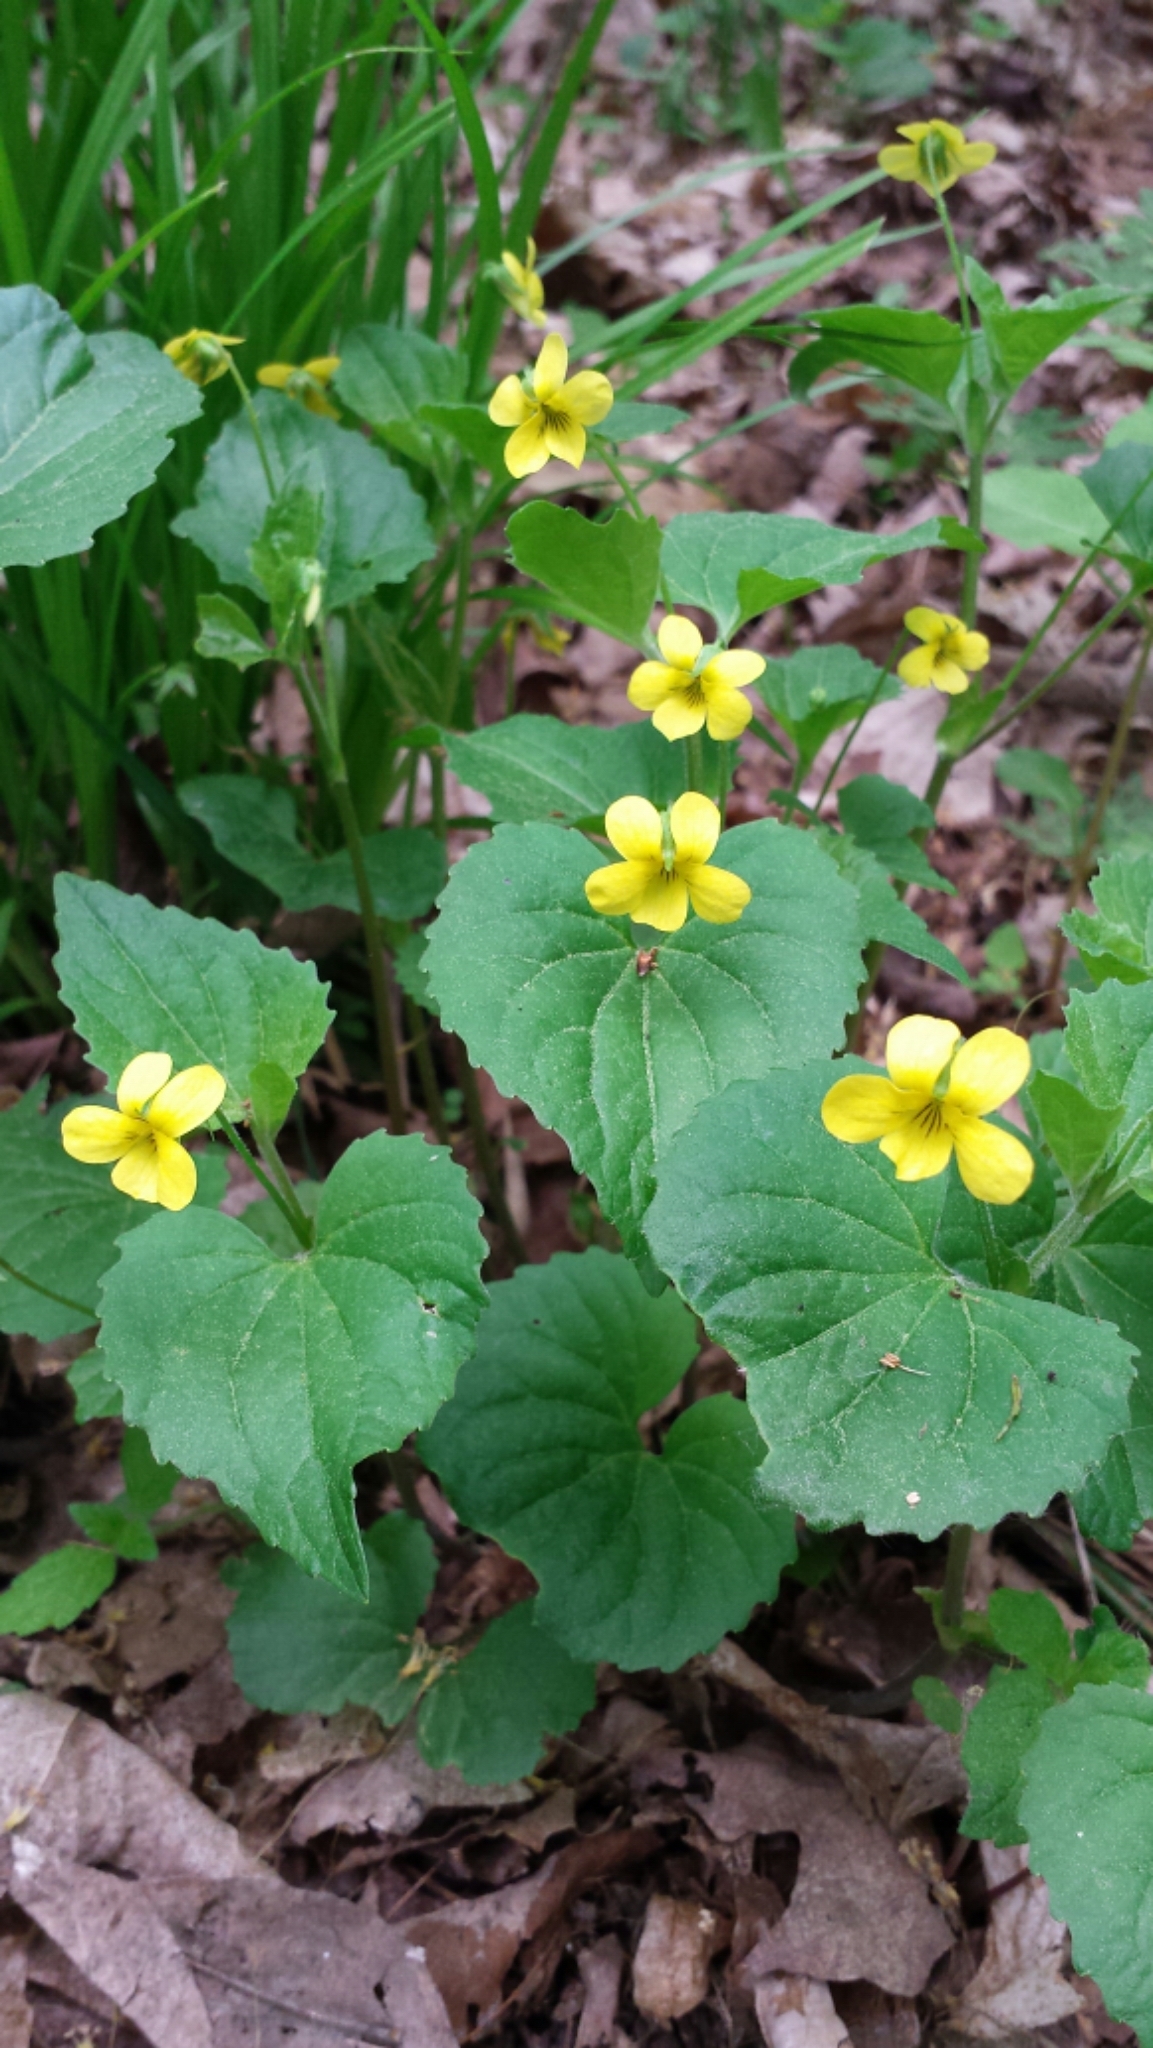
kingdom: Plantae
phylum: Tracheophyta
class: Magnoliopsida
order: Malpighiales
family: Violaceae
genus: Viola
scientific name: Viola eriocarpa
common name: Smooth yellow violet
